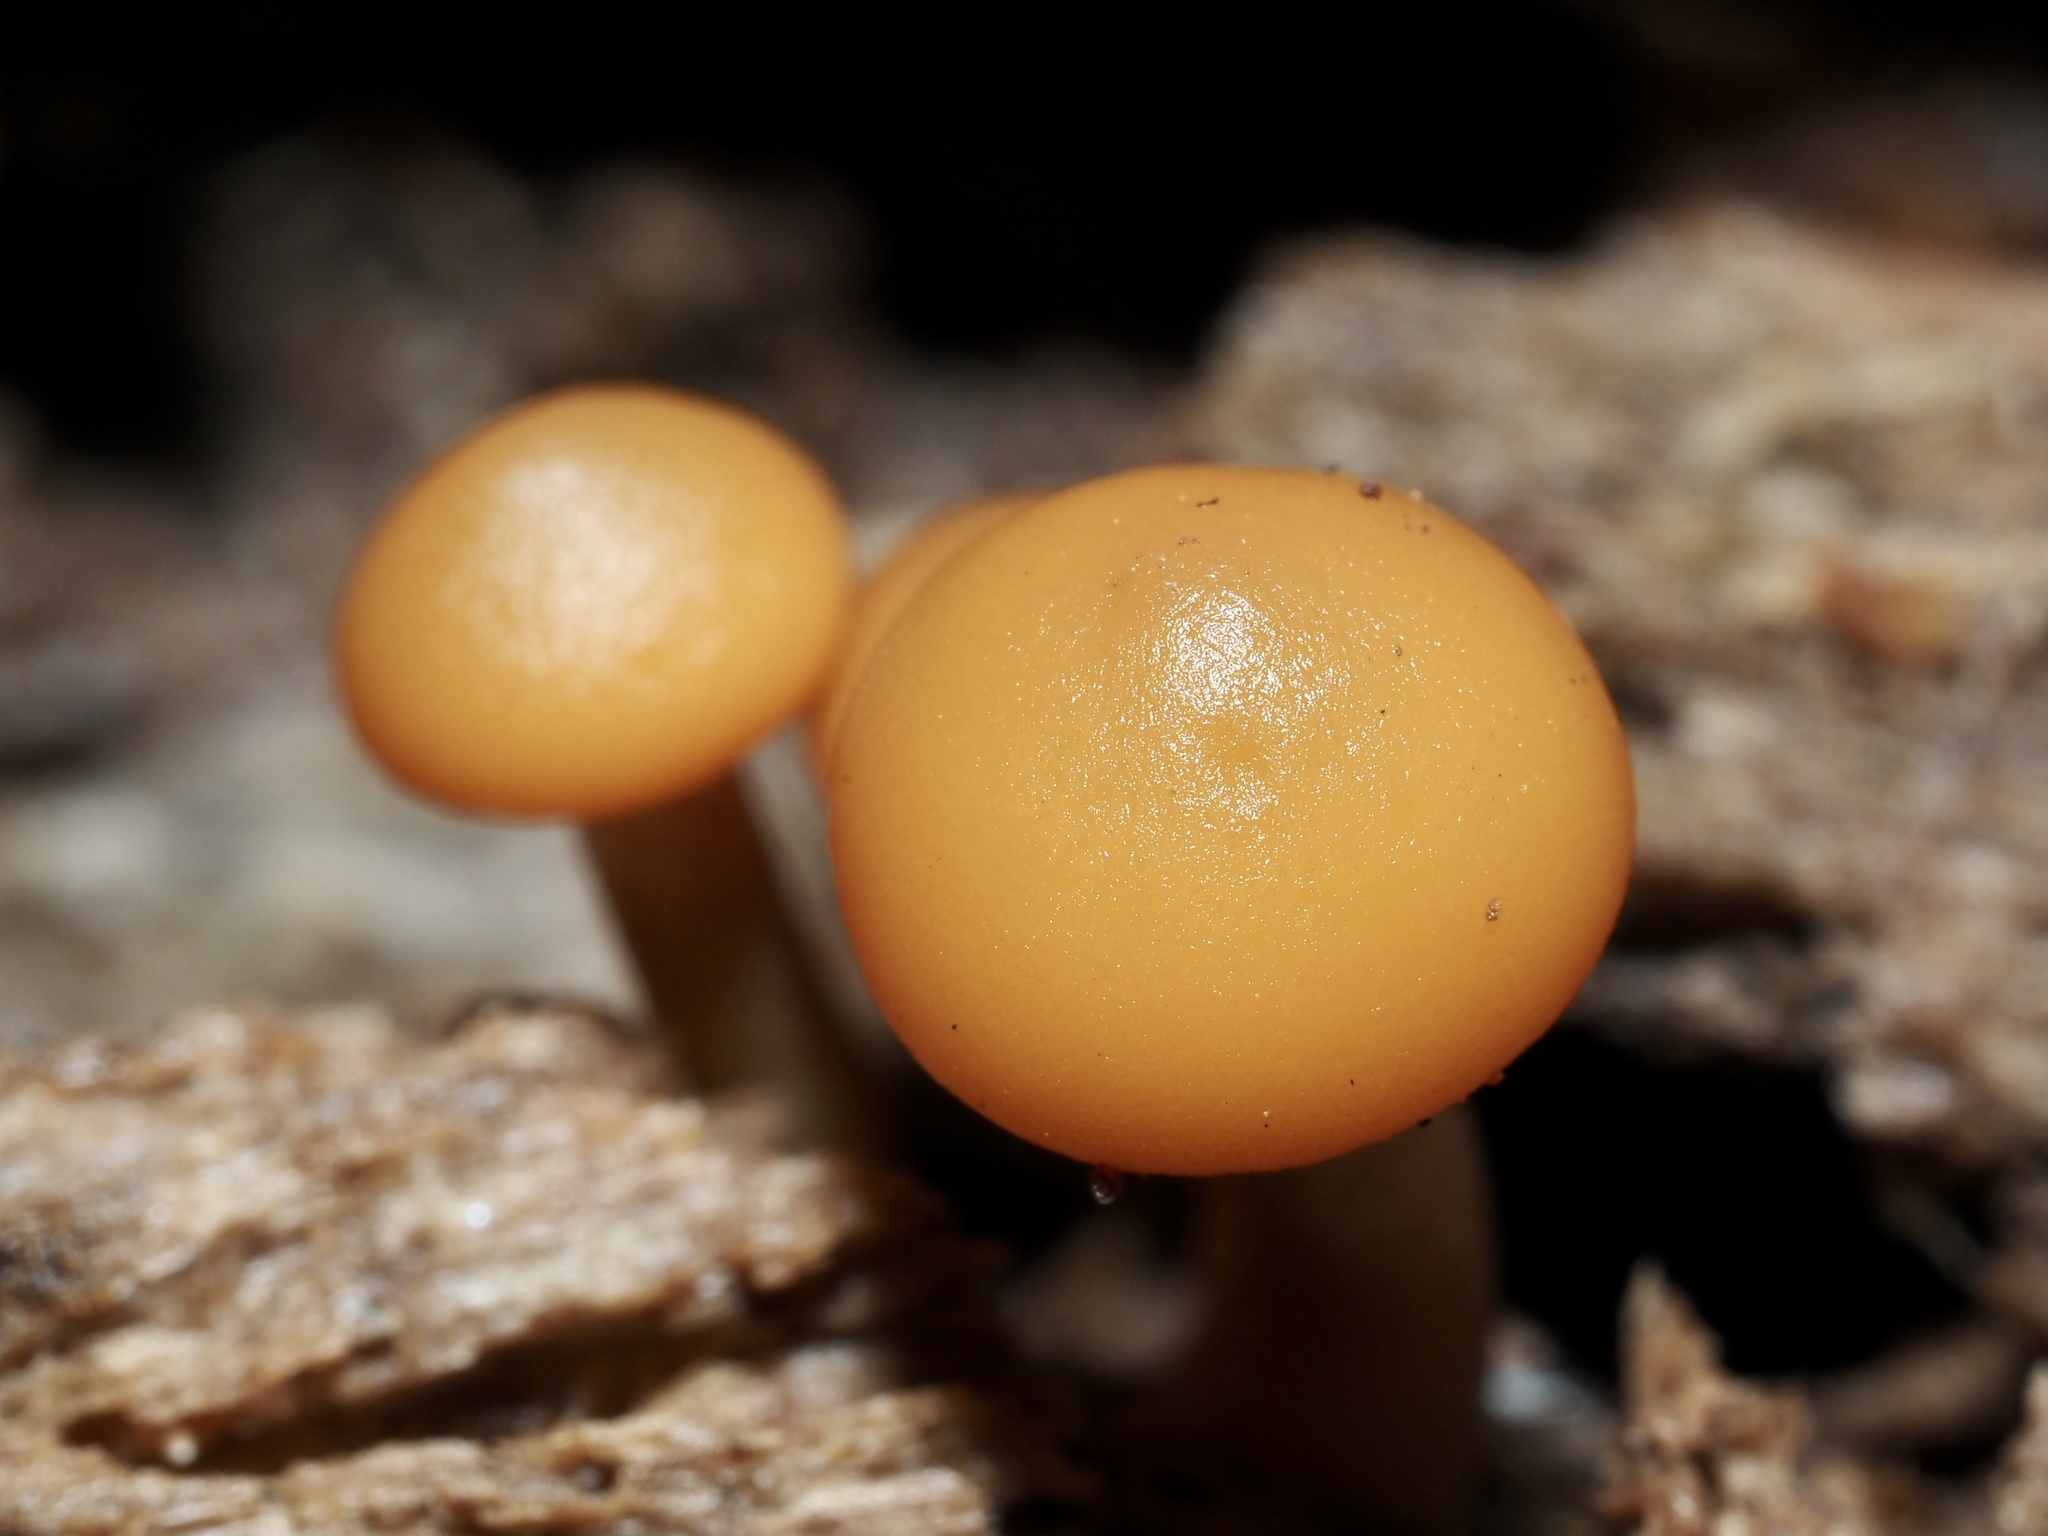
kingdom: Fungi
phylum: Basidiomycota
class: Agaricomycetes
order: Agaricales
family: Hymenogastraceae
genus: Galerina
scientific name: Galerina marginata
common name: Funeral bell
